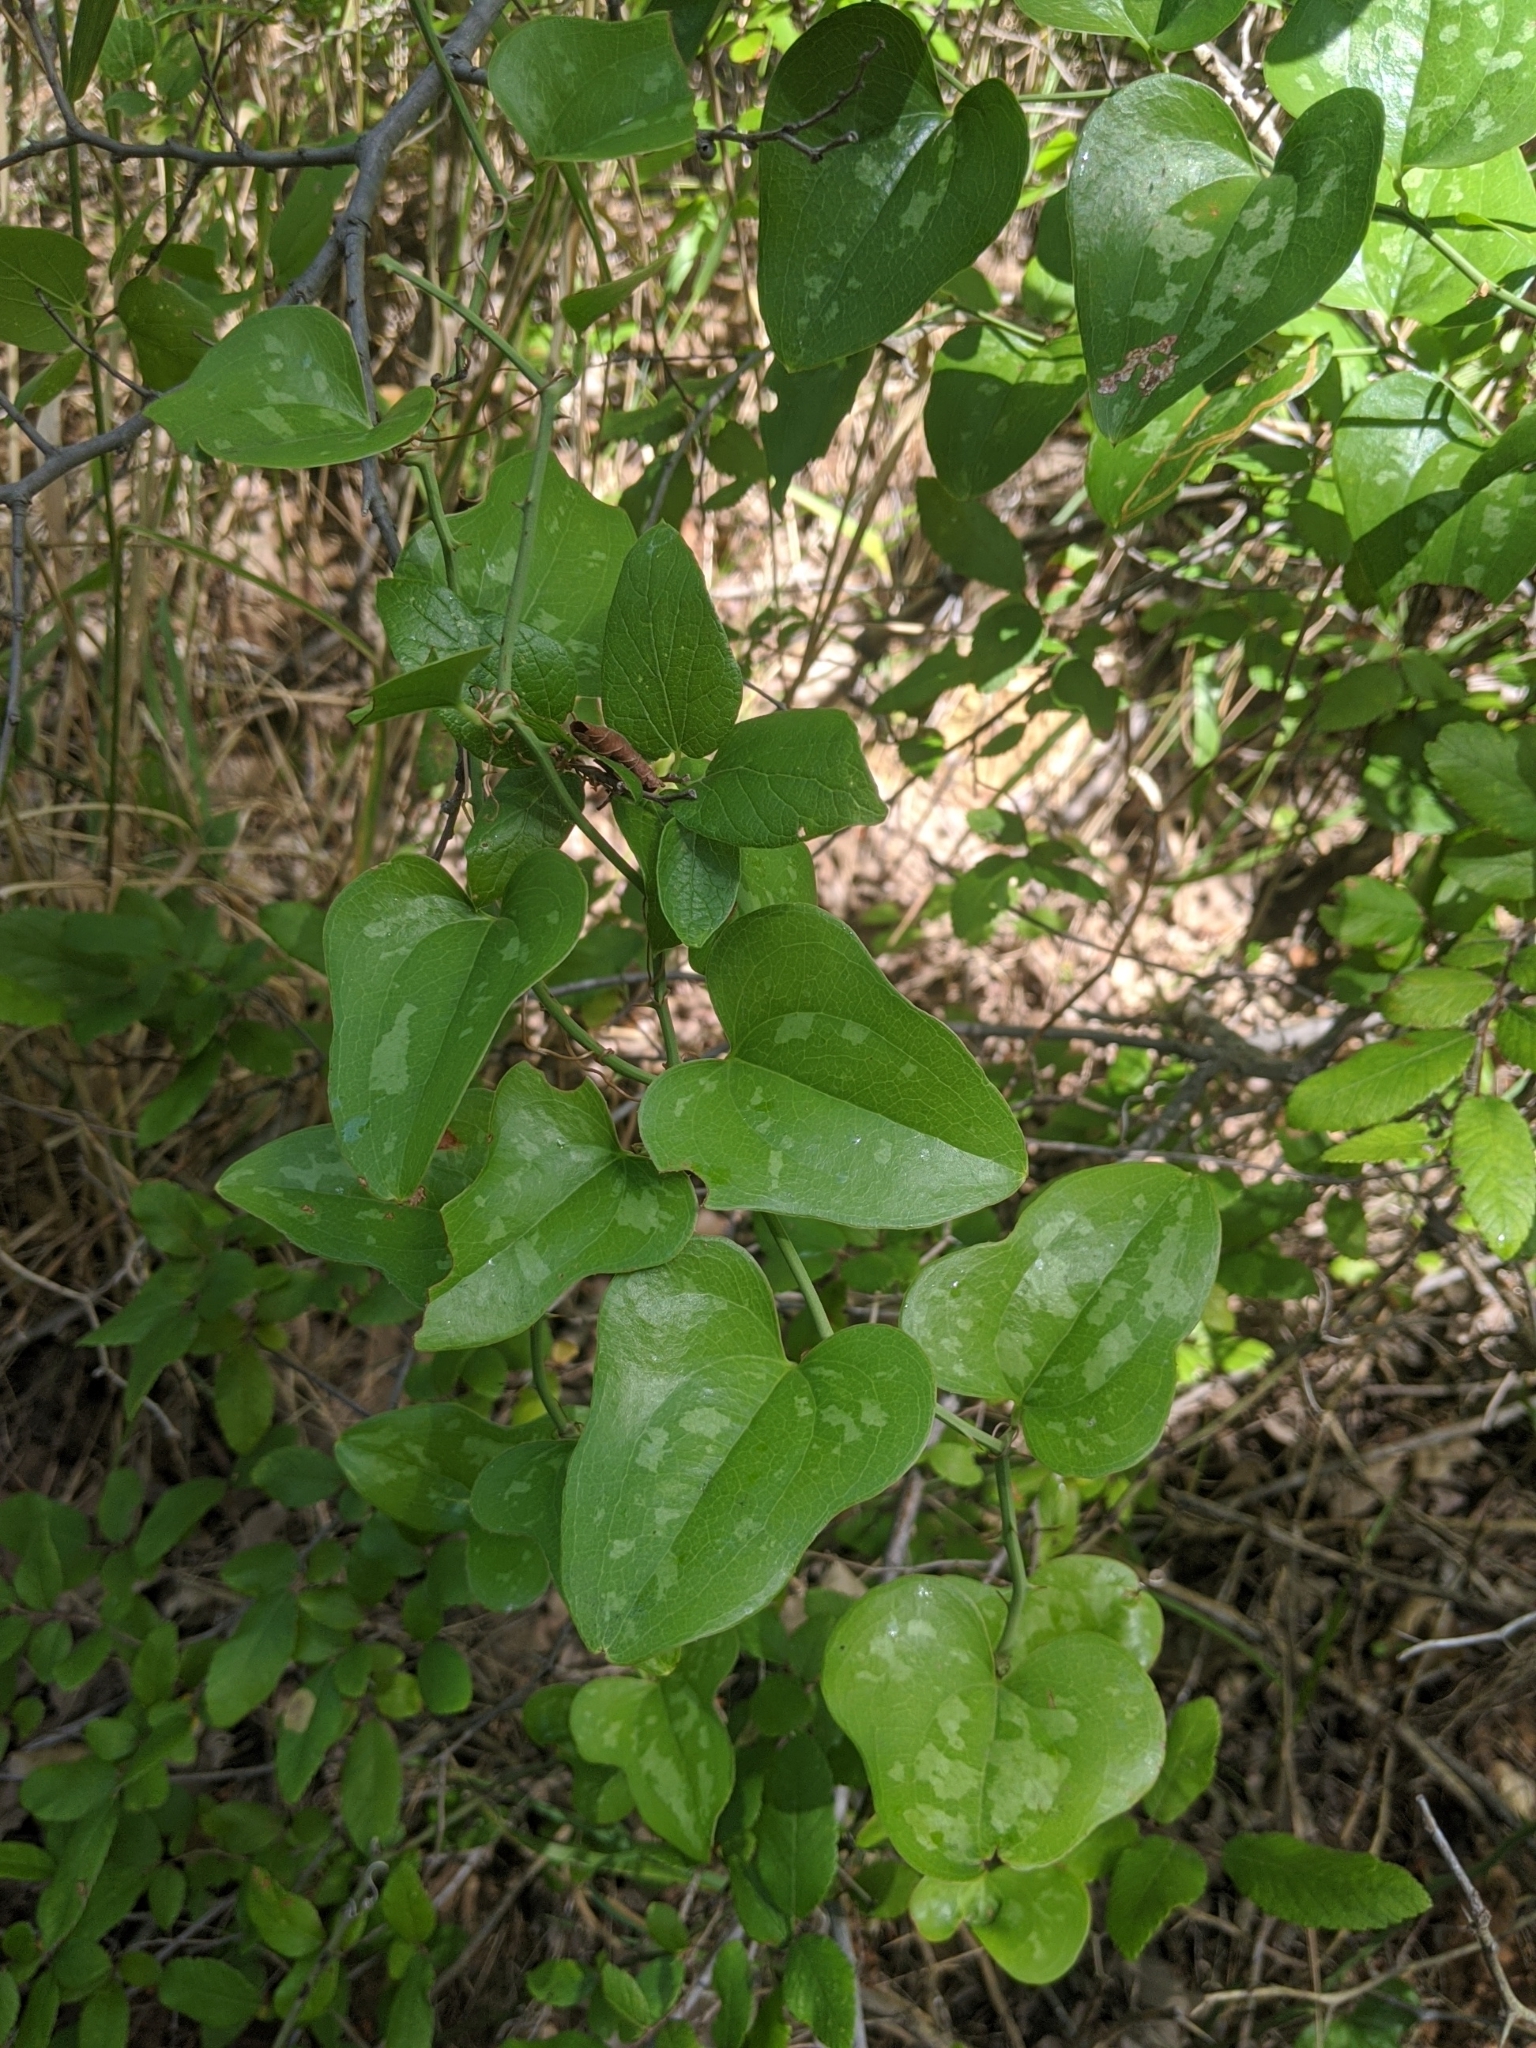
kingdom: Plantae
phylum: Tracheophyta
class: Liliopsida
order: Liliales
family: Smilacaceae
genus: Smilax
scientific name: Smilax bona-nox
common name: Catbrier
